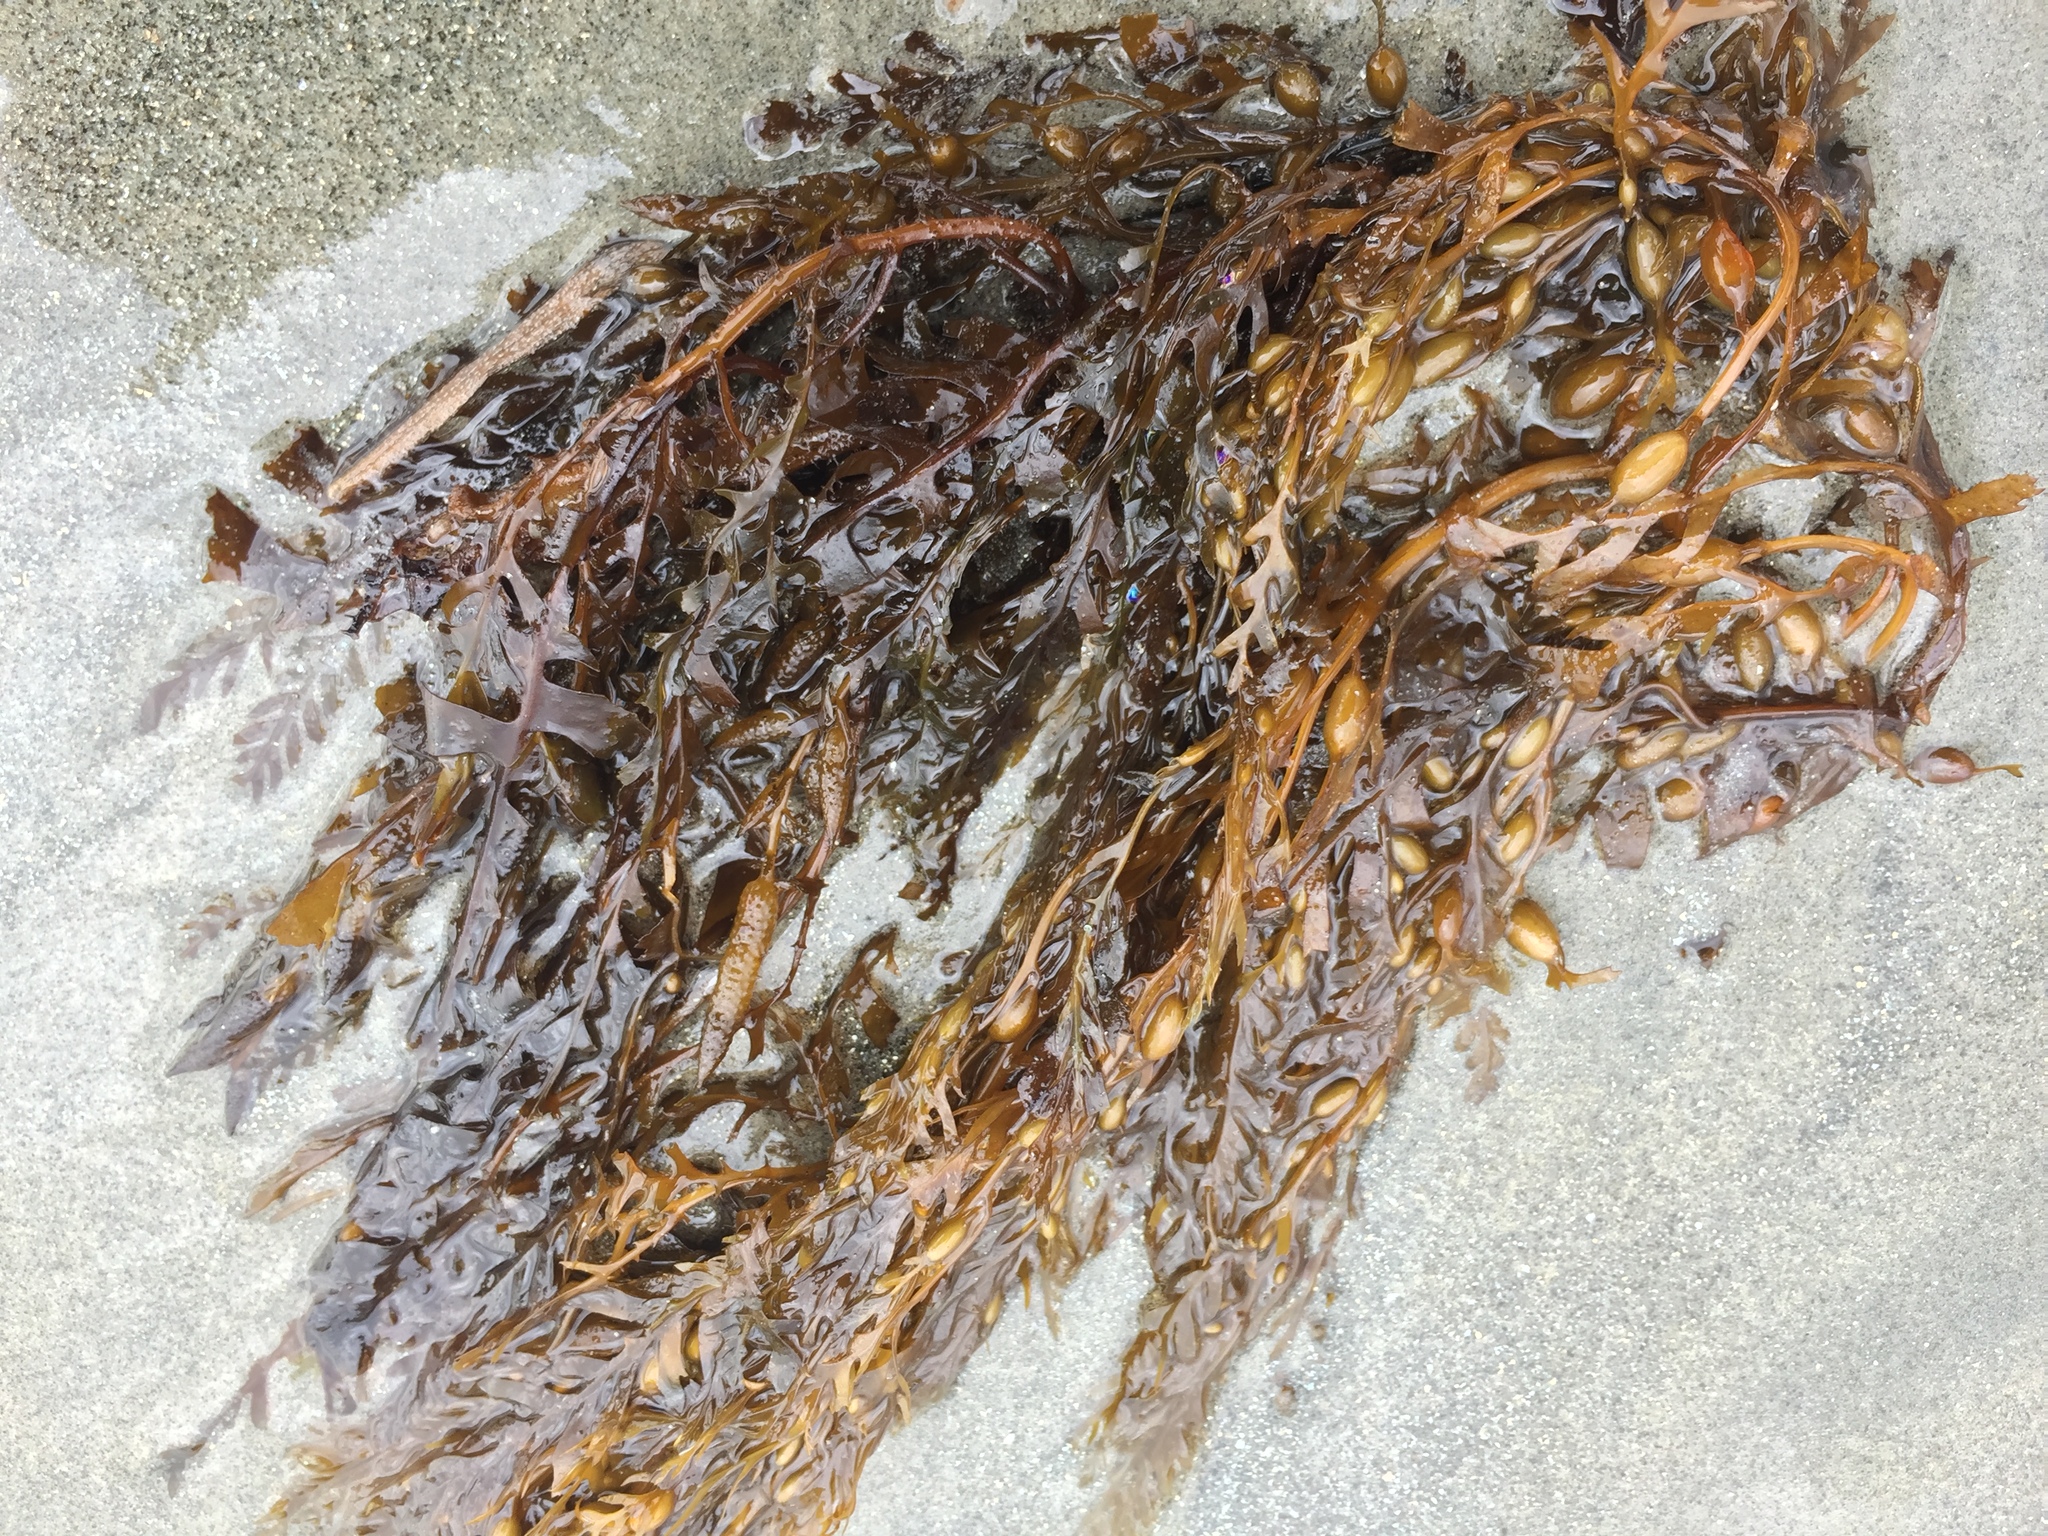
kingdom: Chromista
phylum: Ochrophyta
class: Phaeophyceae
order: Fucales
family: Sargassaceae
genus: Sargassum
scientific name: Sargassum horneri
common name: Devil weed
